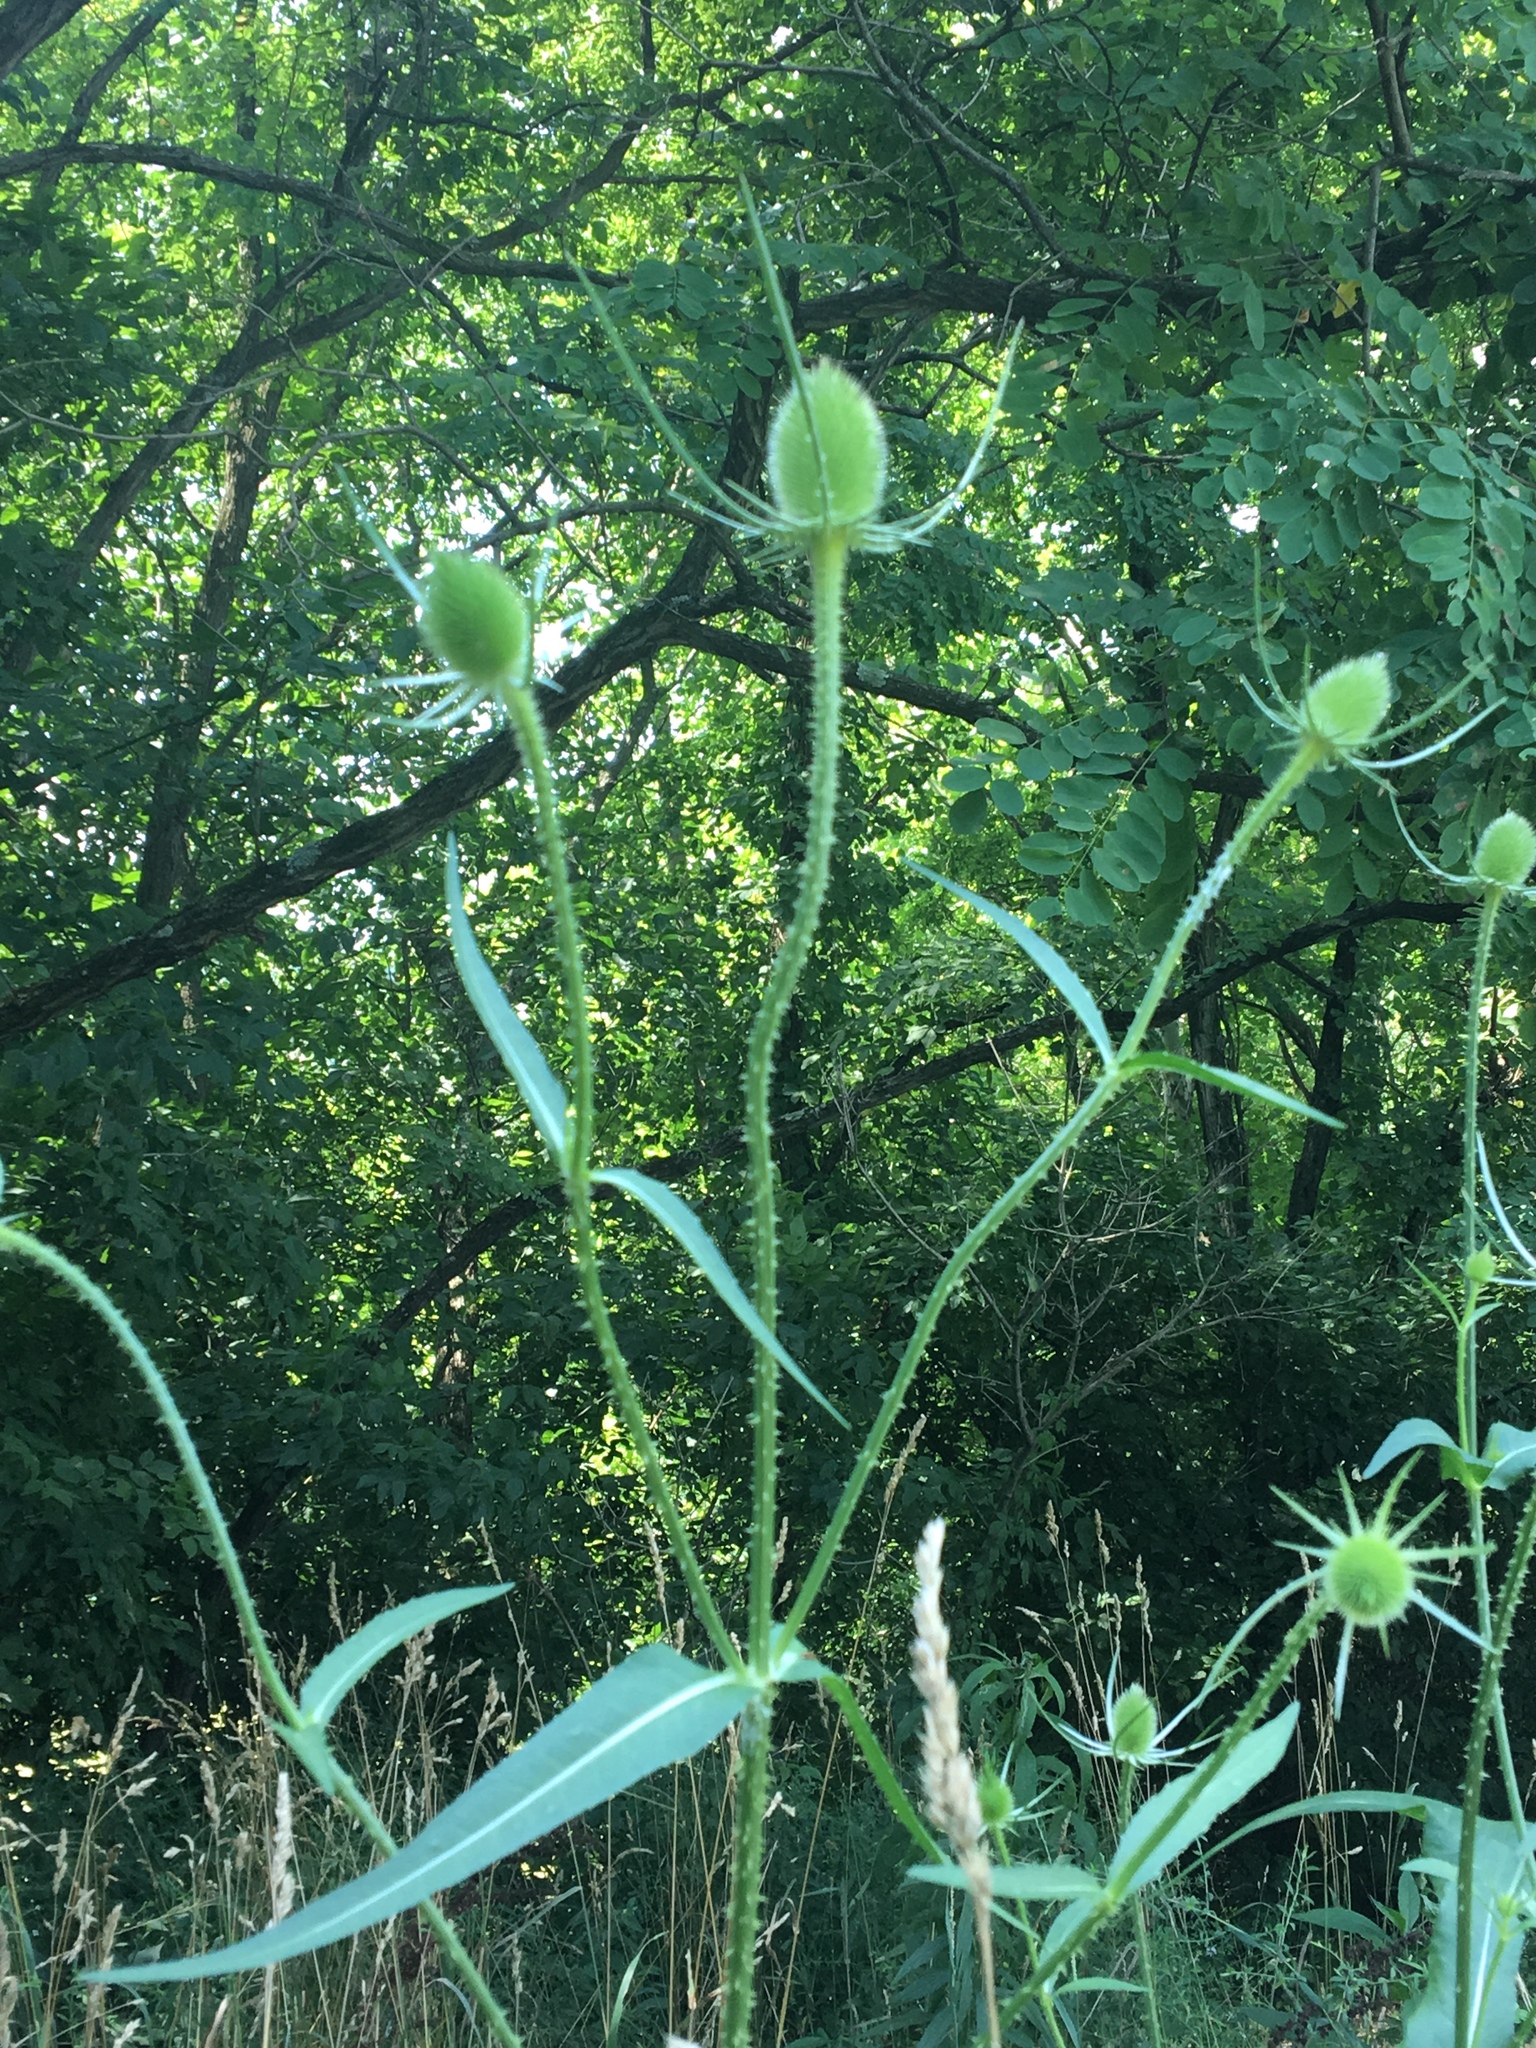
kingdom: Plantae
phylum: Tracheophyta
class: Magnoliopsida
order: Dipsacales
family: Caprifoliaceae
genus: Dipsacus
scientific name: Dipsacus fullonum
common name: Teasel
